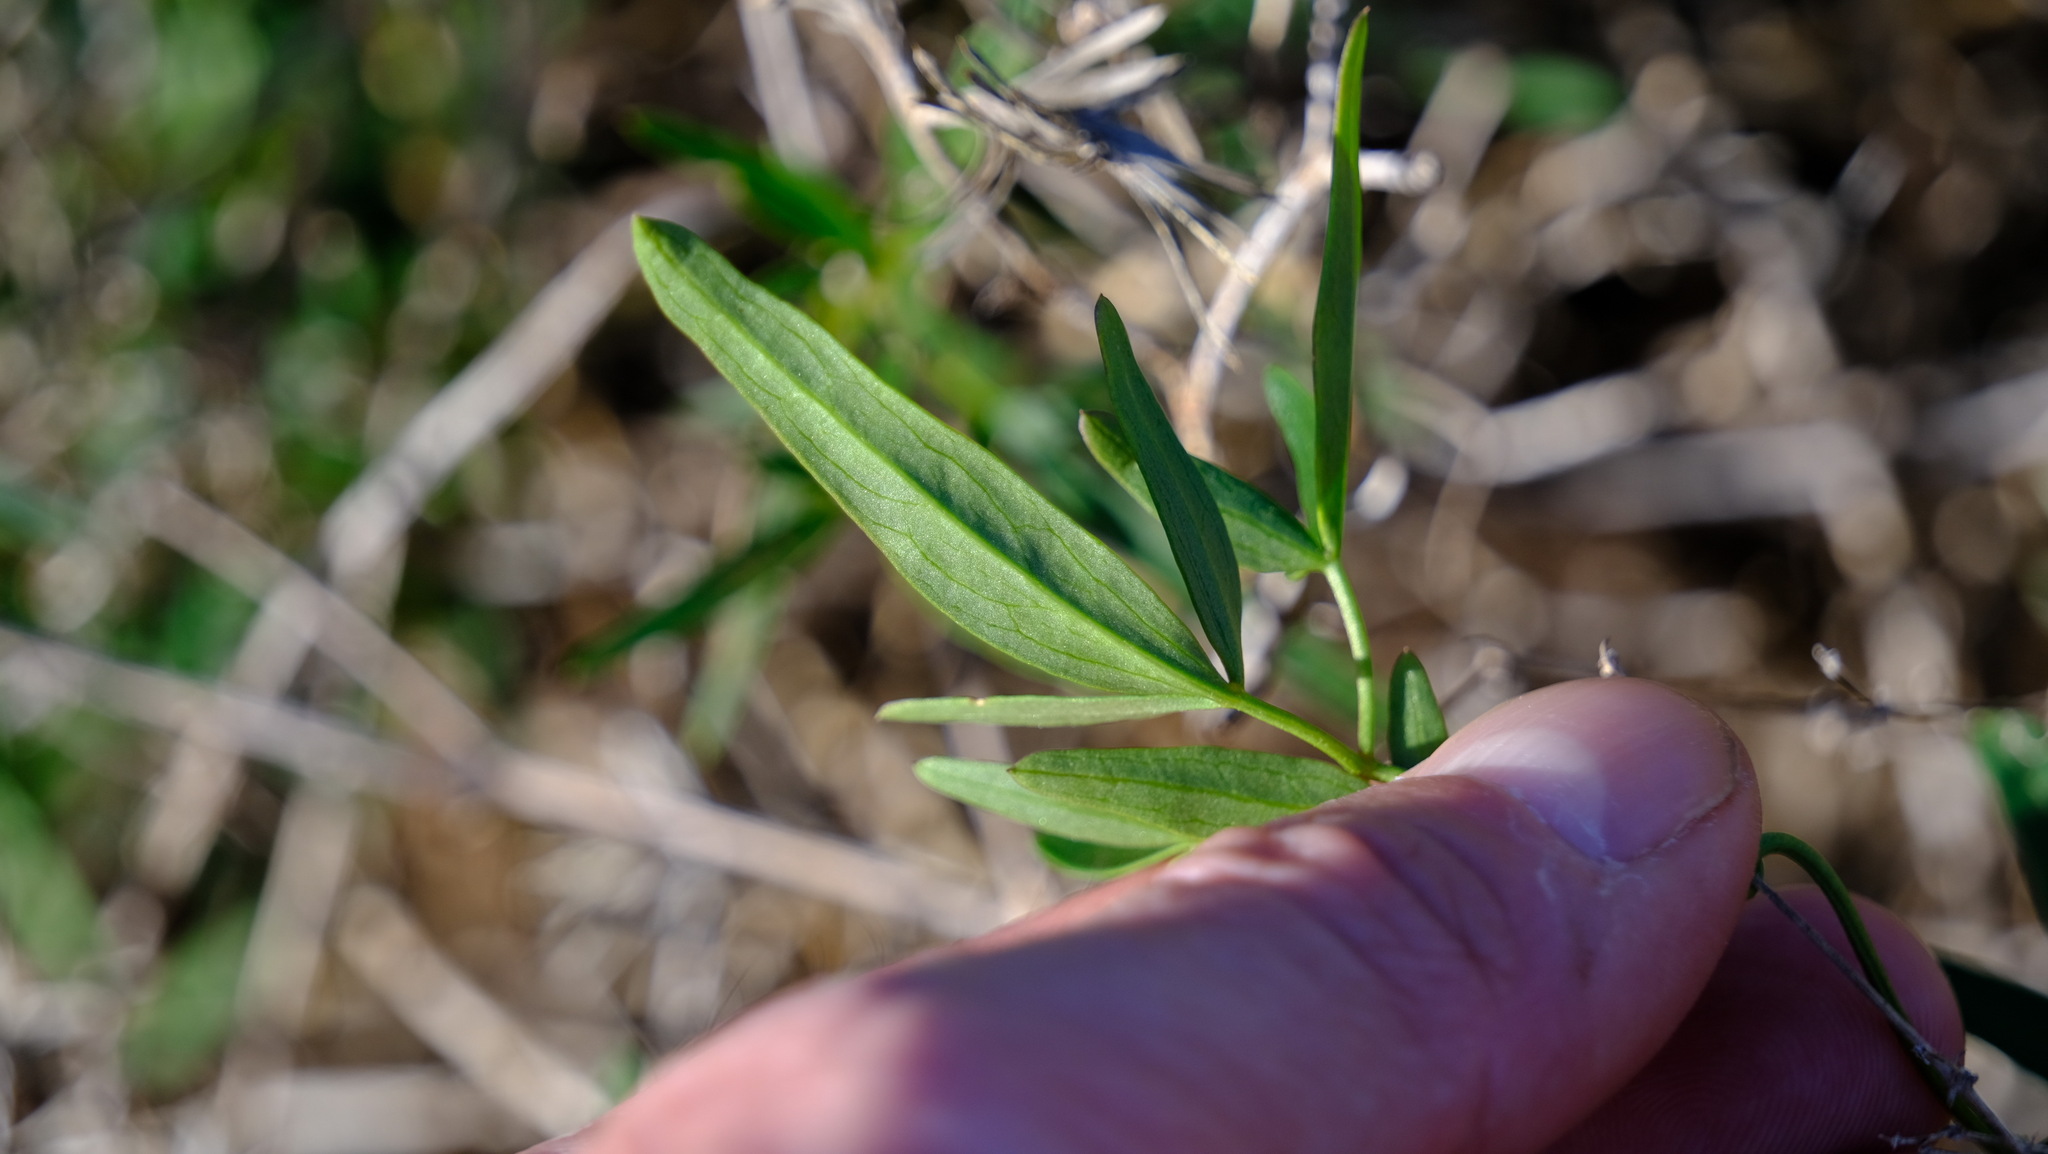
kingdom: Plantae
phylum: Tracheophyta
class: Magnoliopsida
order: Ranunculales
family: Ranunculaceae
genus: Clematis
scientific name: Clematis linearifolia
